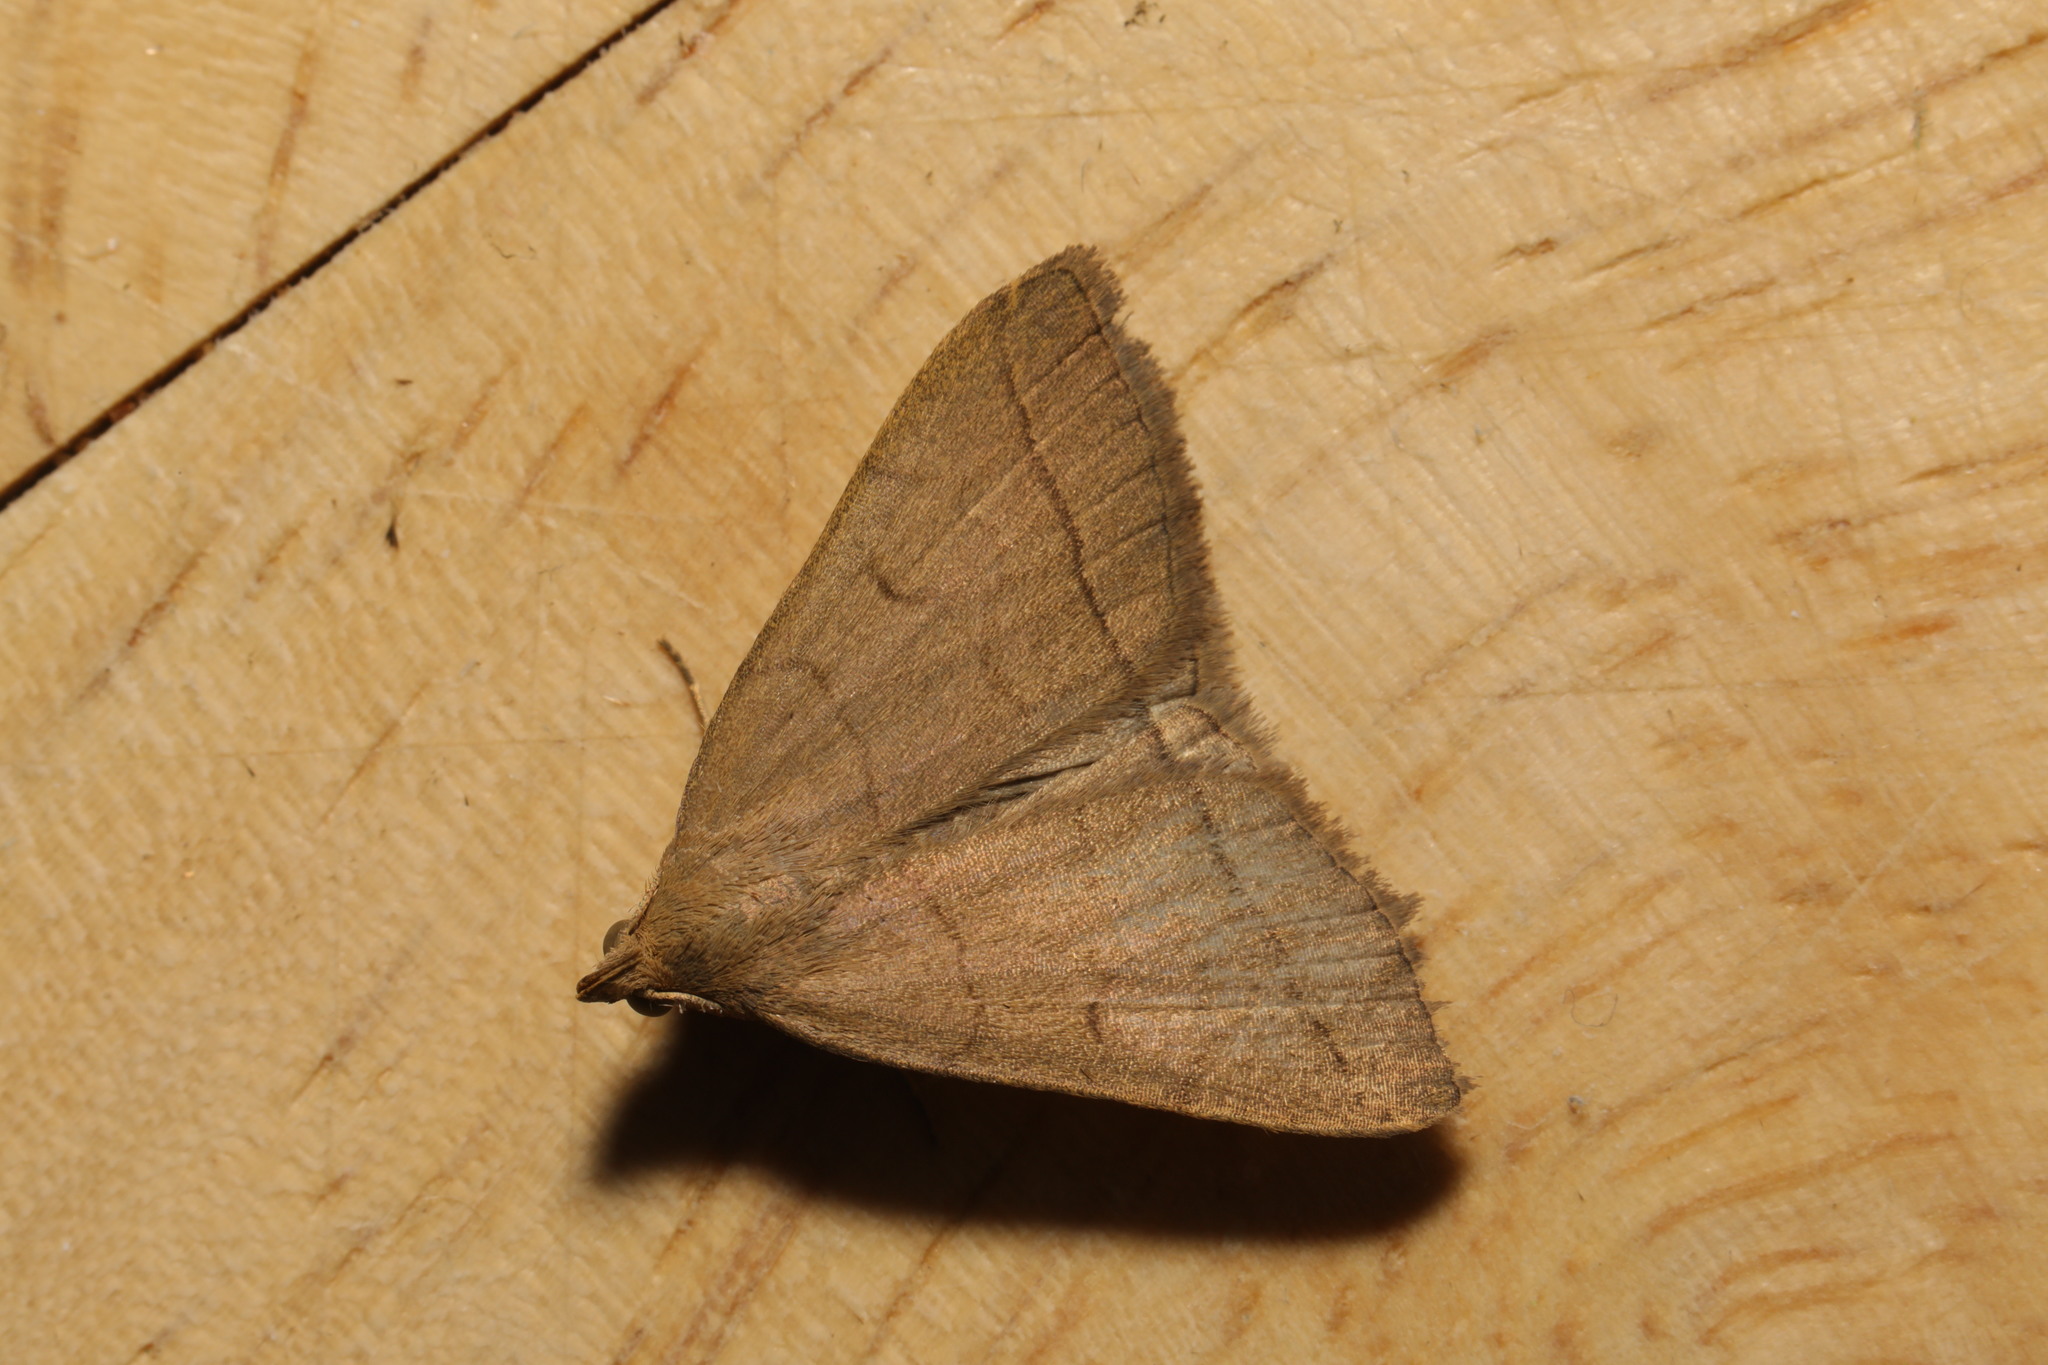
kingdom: Animalia
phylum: Arthropoda
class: Insecta
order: Lepidoptera
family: Erebidae
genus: Herminia
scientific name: Herminia tarsipennalis
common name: Fan-foot
